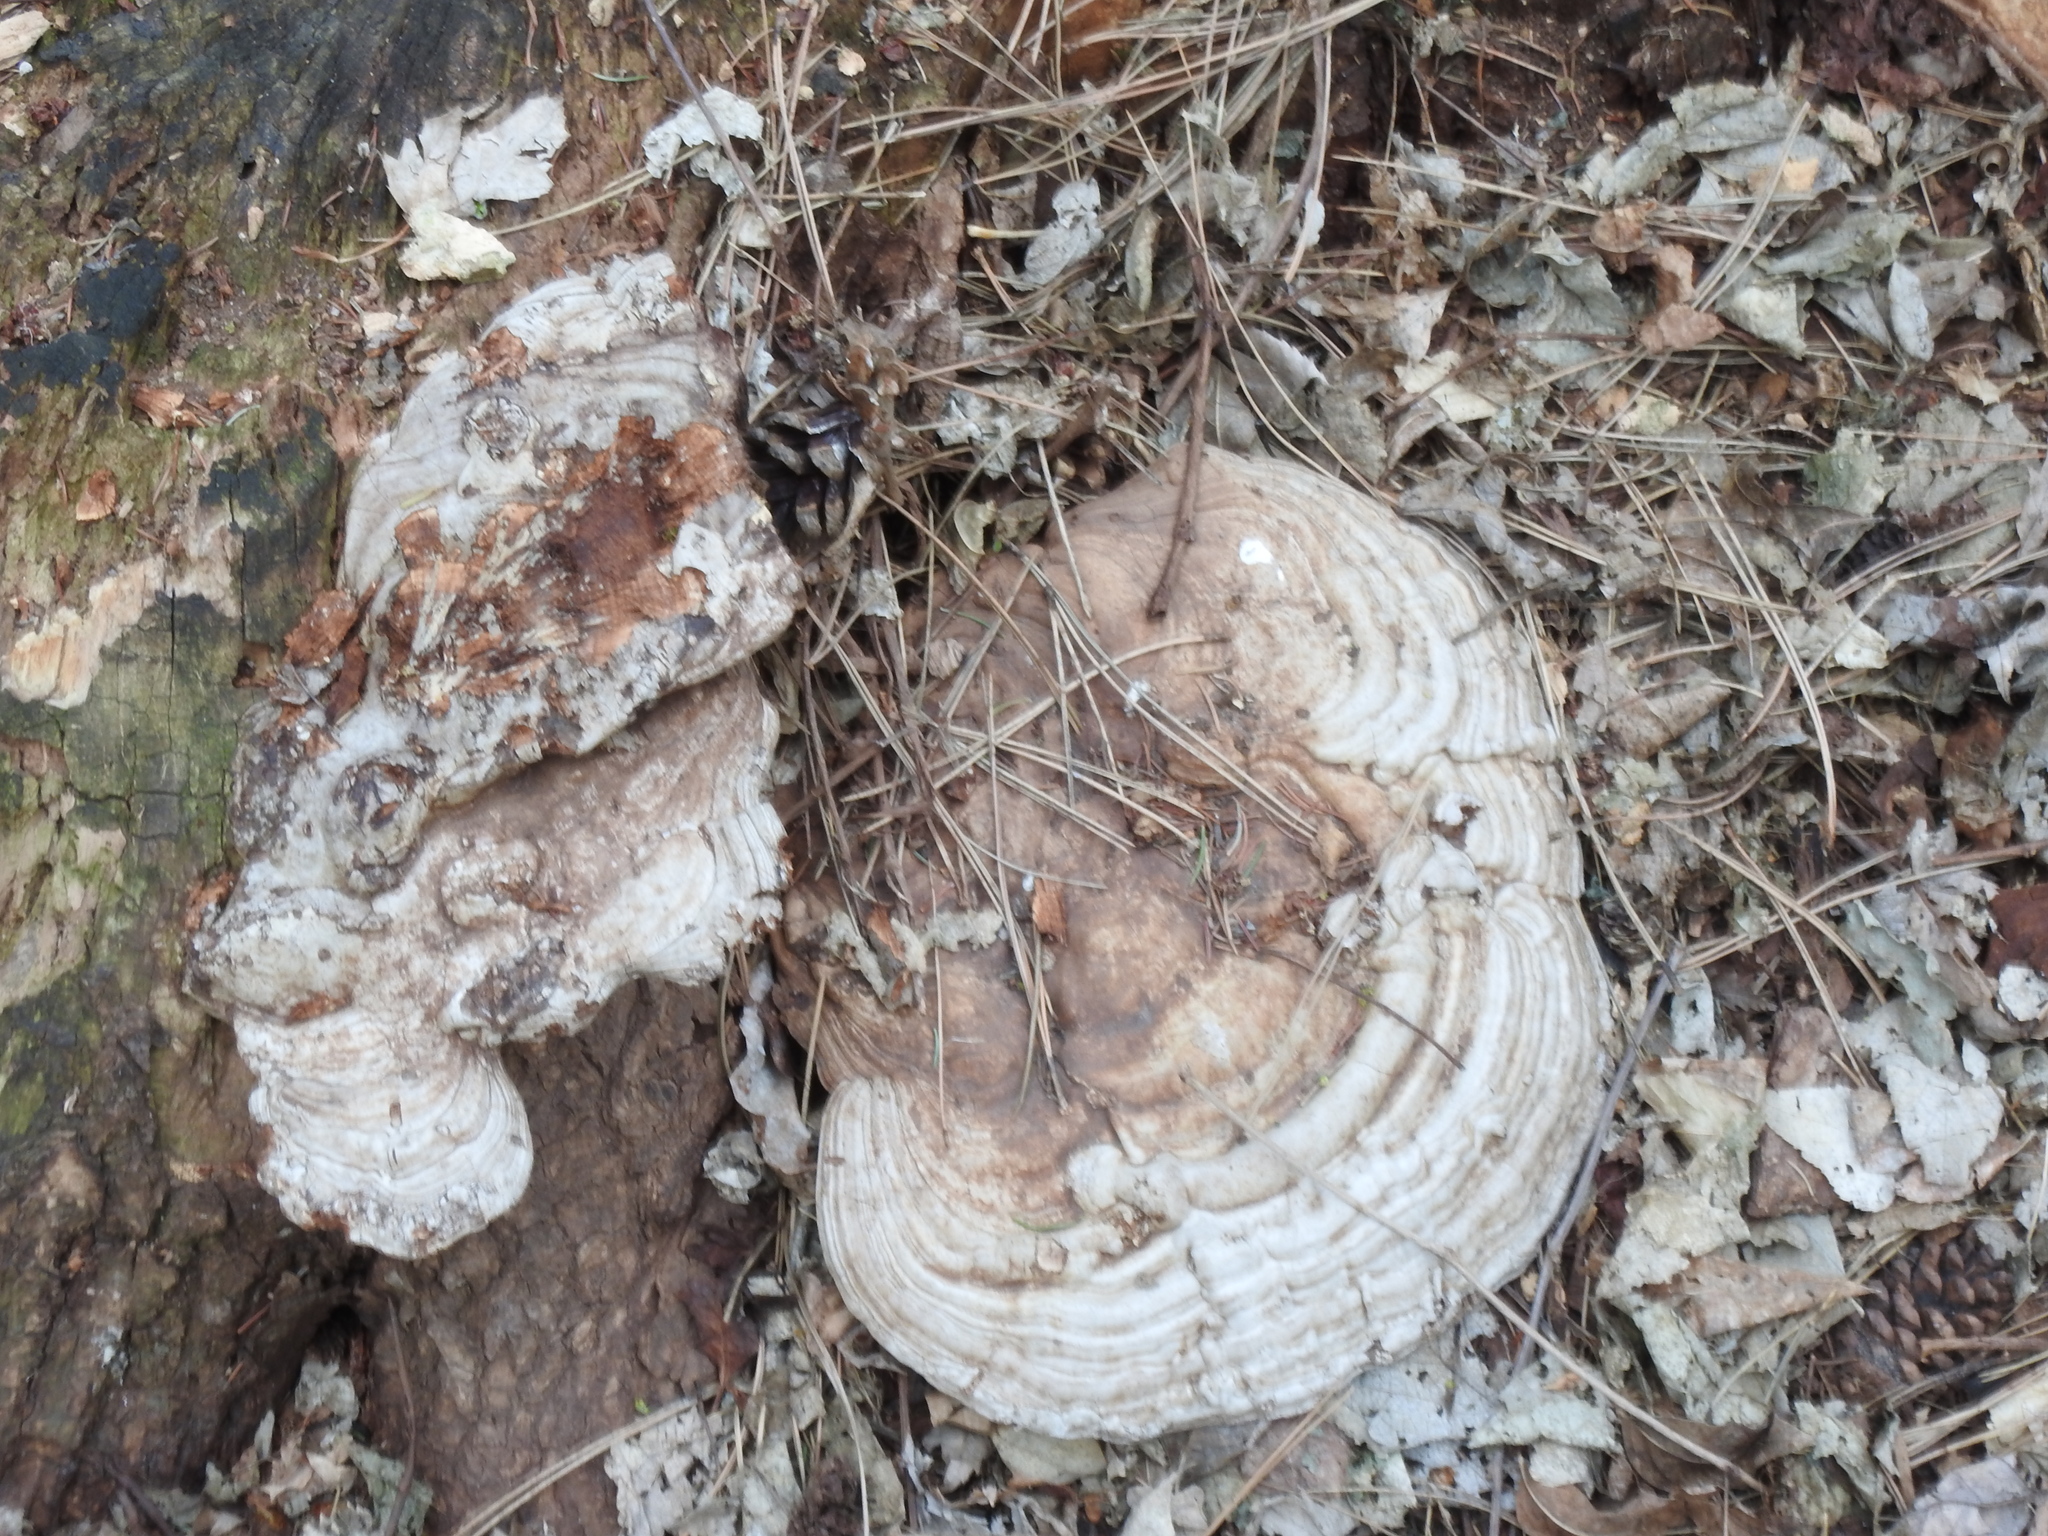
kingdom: Fungi
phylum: Basidiomycota
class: Agaricomycetes
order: Polyporales
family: Polyporaceae
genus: Ganoderma
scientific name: Ganoderma applanatum
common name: Artist's bracket
